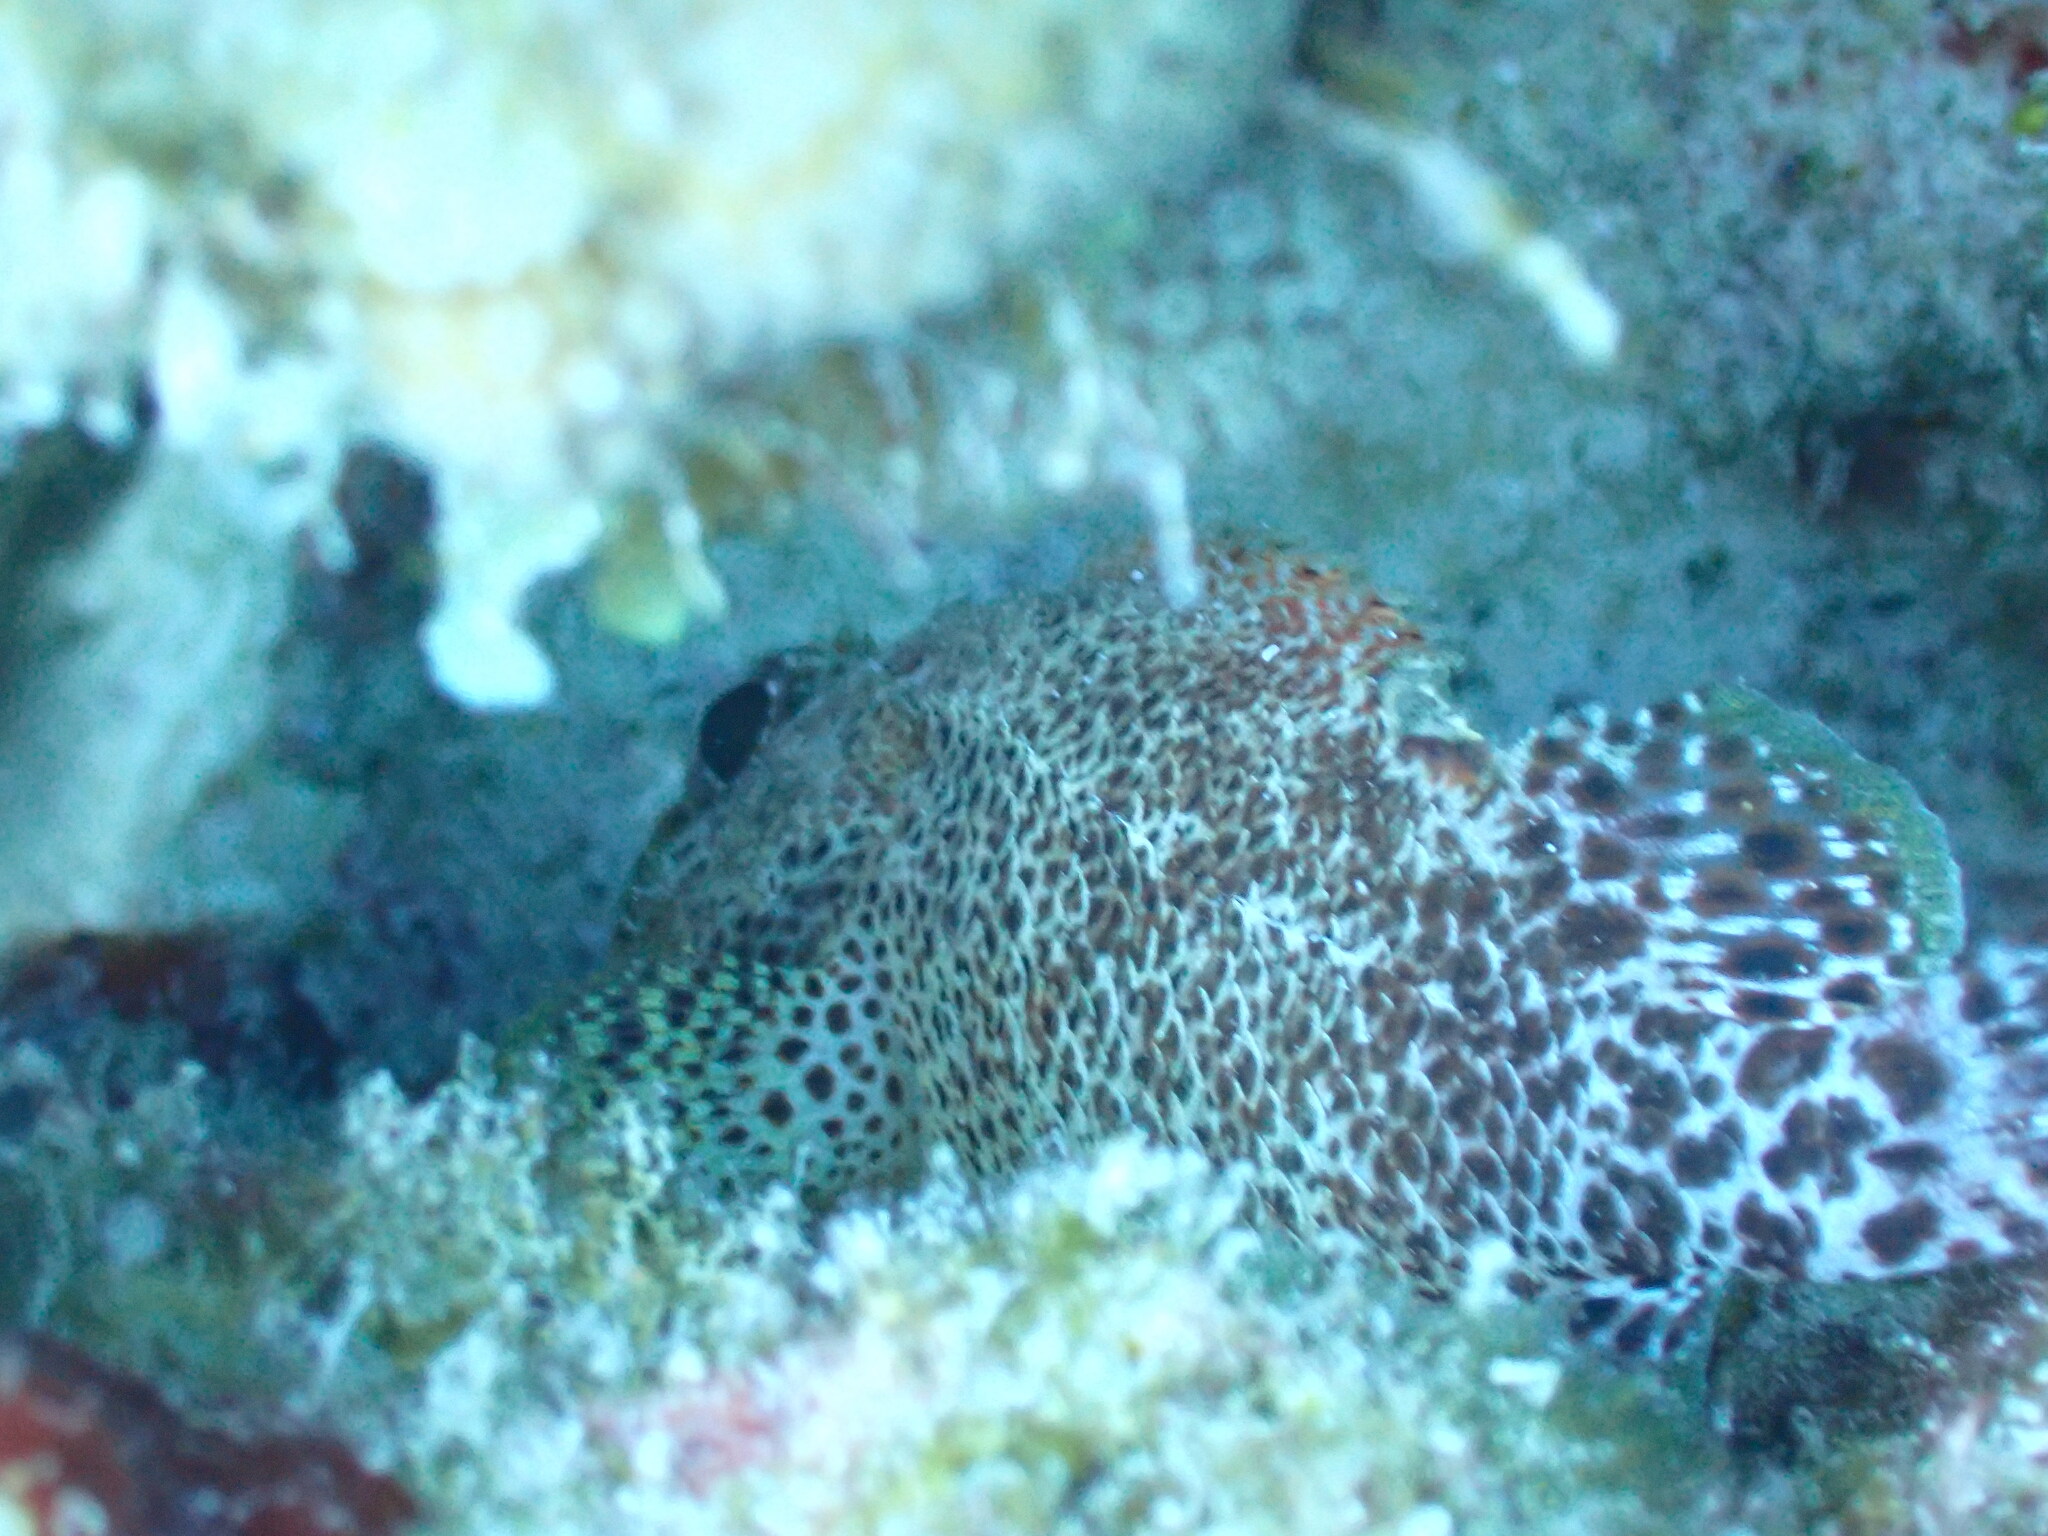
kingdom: Animalia
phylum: Chordata
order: Scorpaeniformes
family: Scorpaenidae
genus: Scorpaenodes
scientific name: Scorpaenodes caribbaeus
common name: Reef scorpionfish
